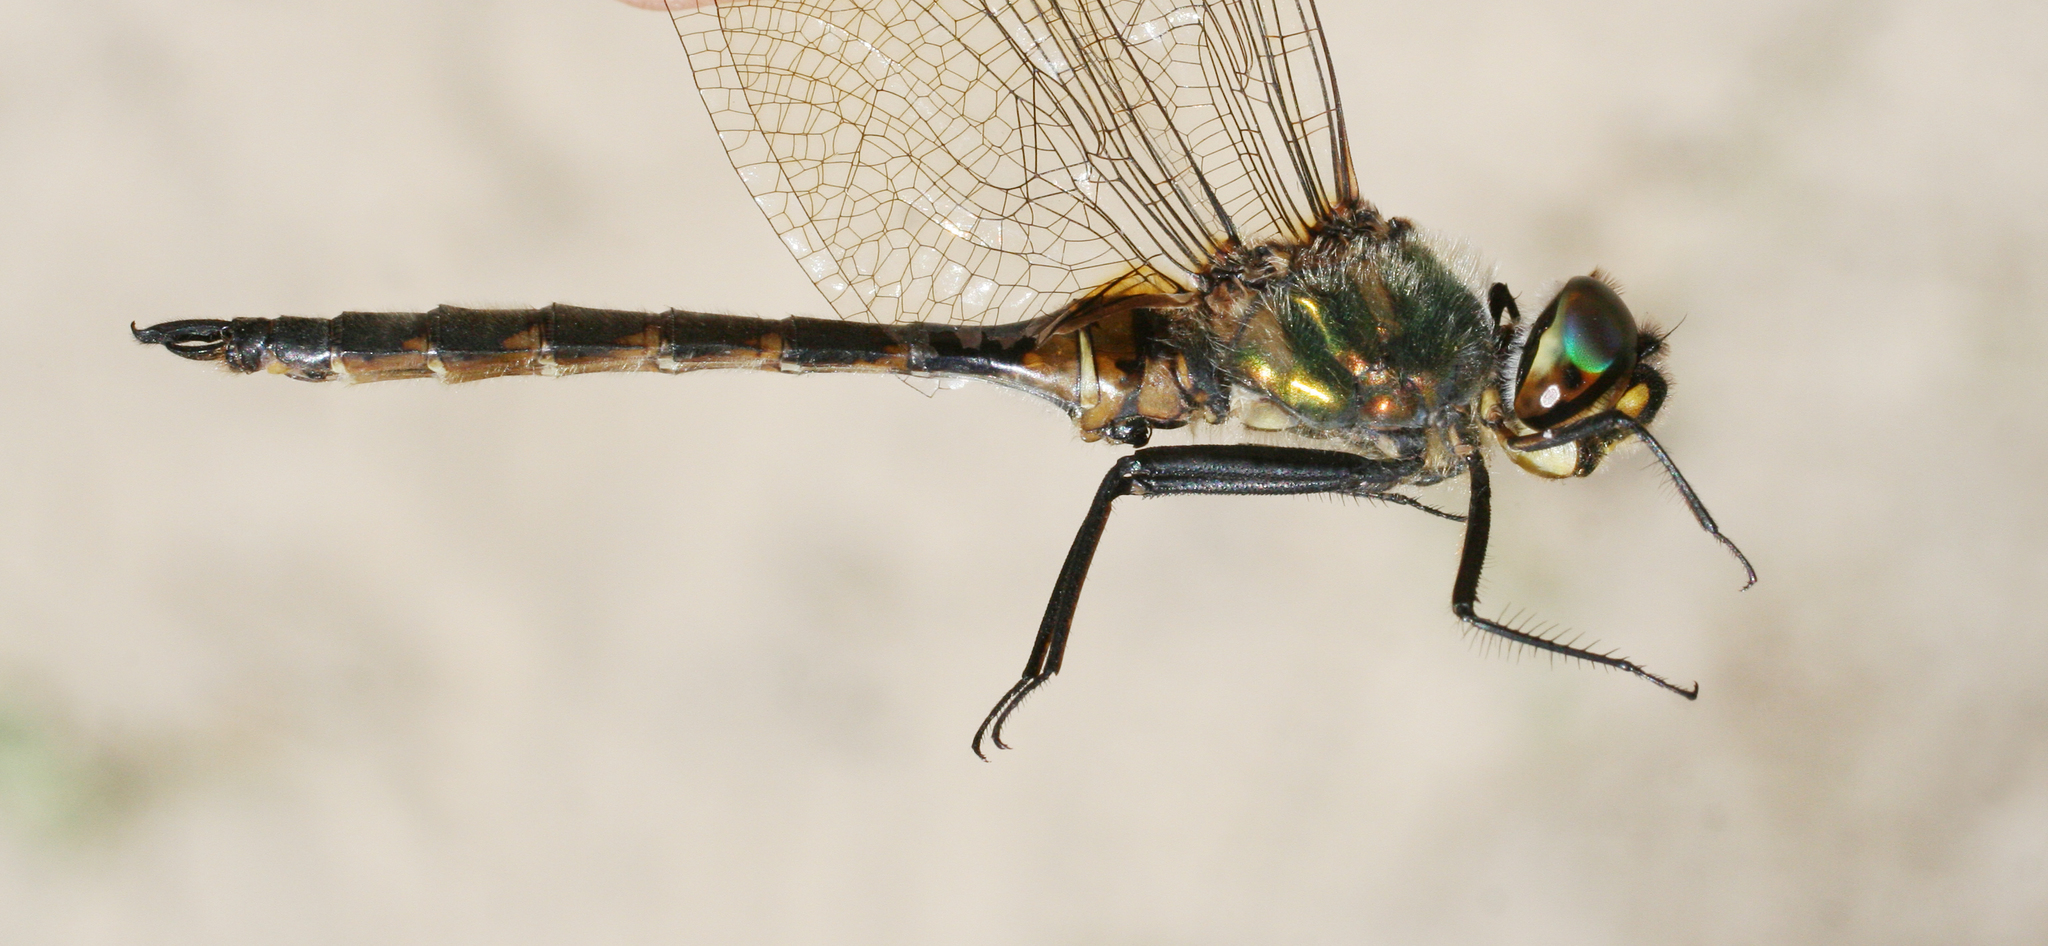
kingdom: Animalia
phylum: Arthropoda
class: Insecta
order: Odonata
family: Corduliidae
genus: Somatochlora
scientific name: Somatochlora flavomaculata
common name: Yellow-spotted emerald
